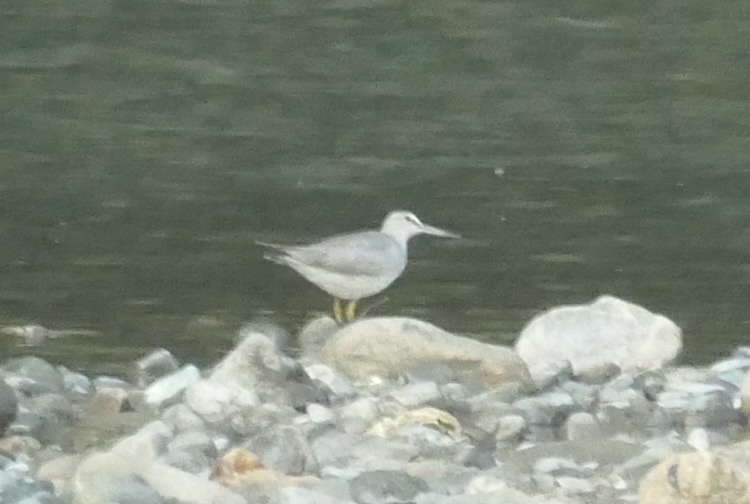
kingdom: Animalia
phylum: Chordata
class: Aves
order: Charadriiformes
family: Scolopacidae
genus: Tringa
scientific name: Tringa brevipes
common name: Grey-tailed tattler
